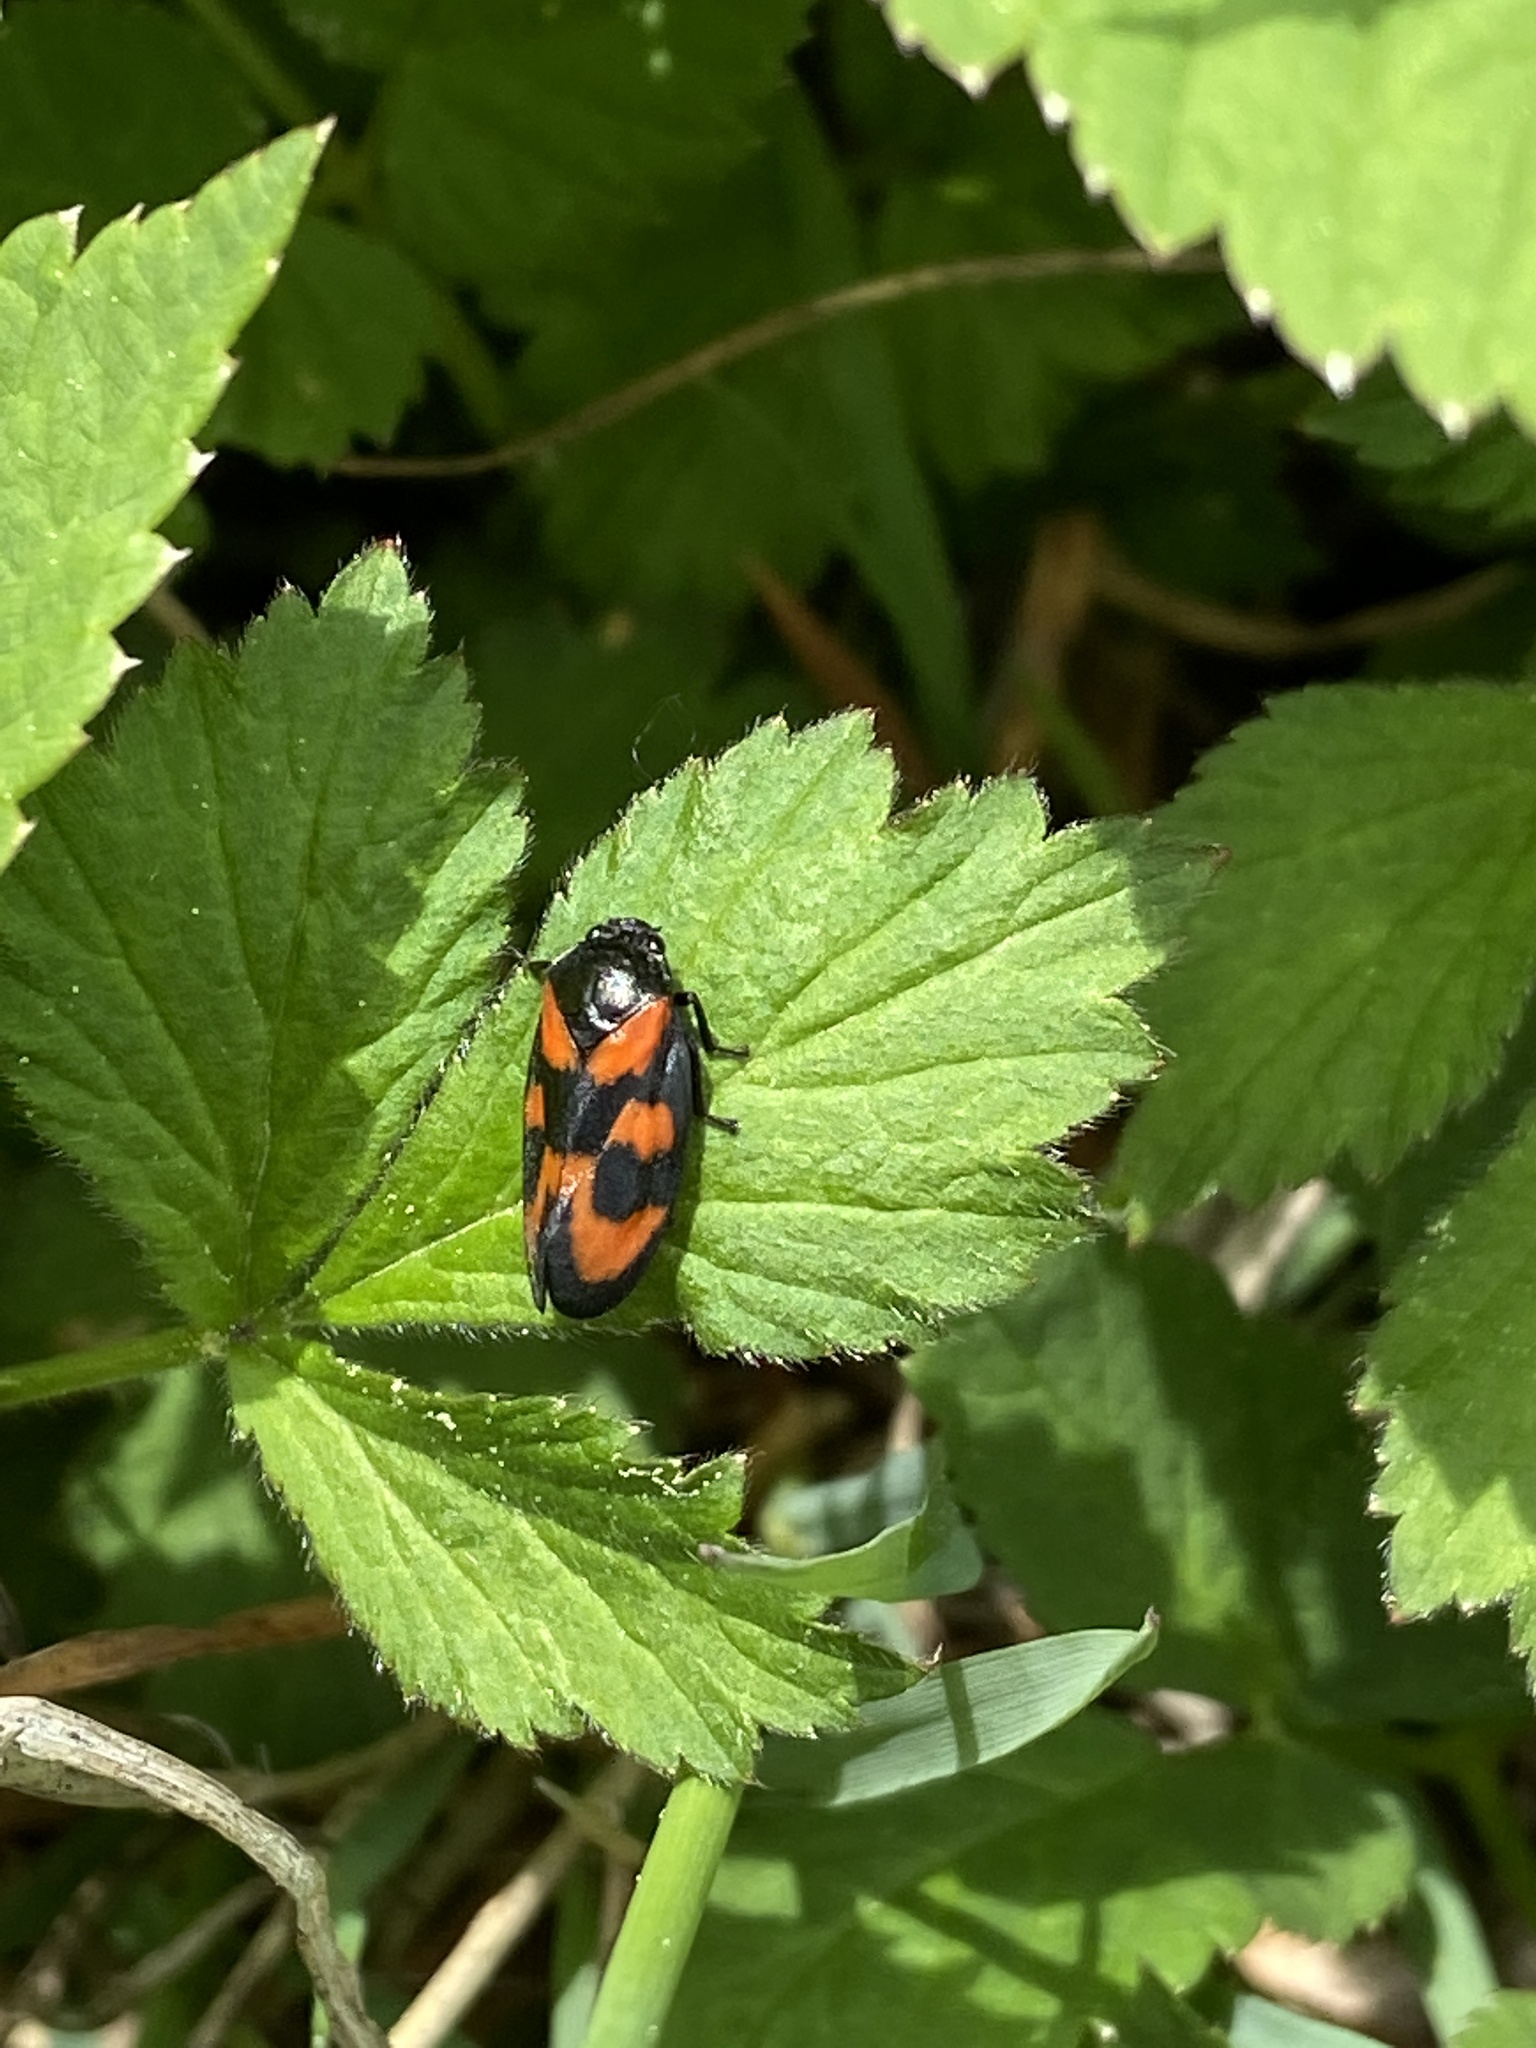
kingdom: Animalia
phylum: Arthropoda
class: Insecta
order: Hemiptera
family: Cercopidae
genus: Cercopis
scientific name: Cercopis vulnerata
